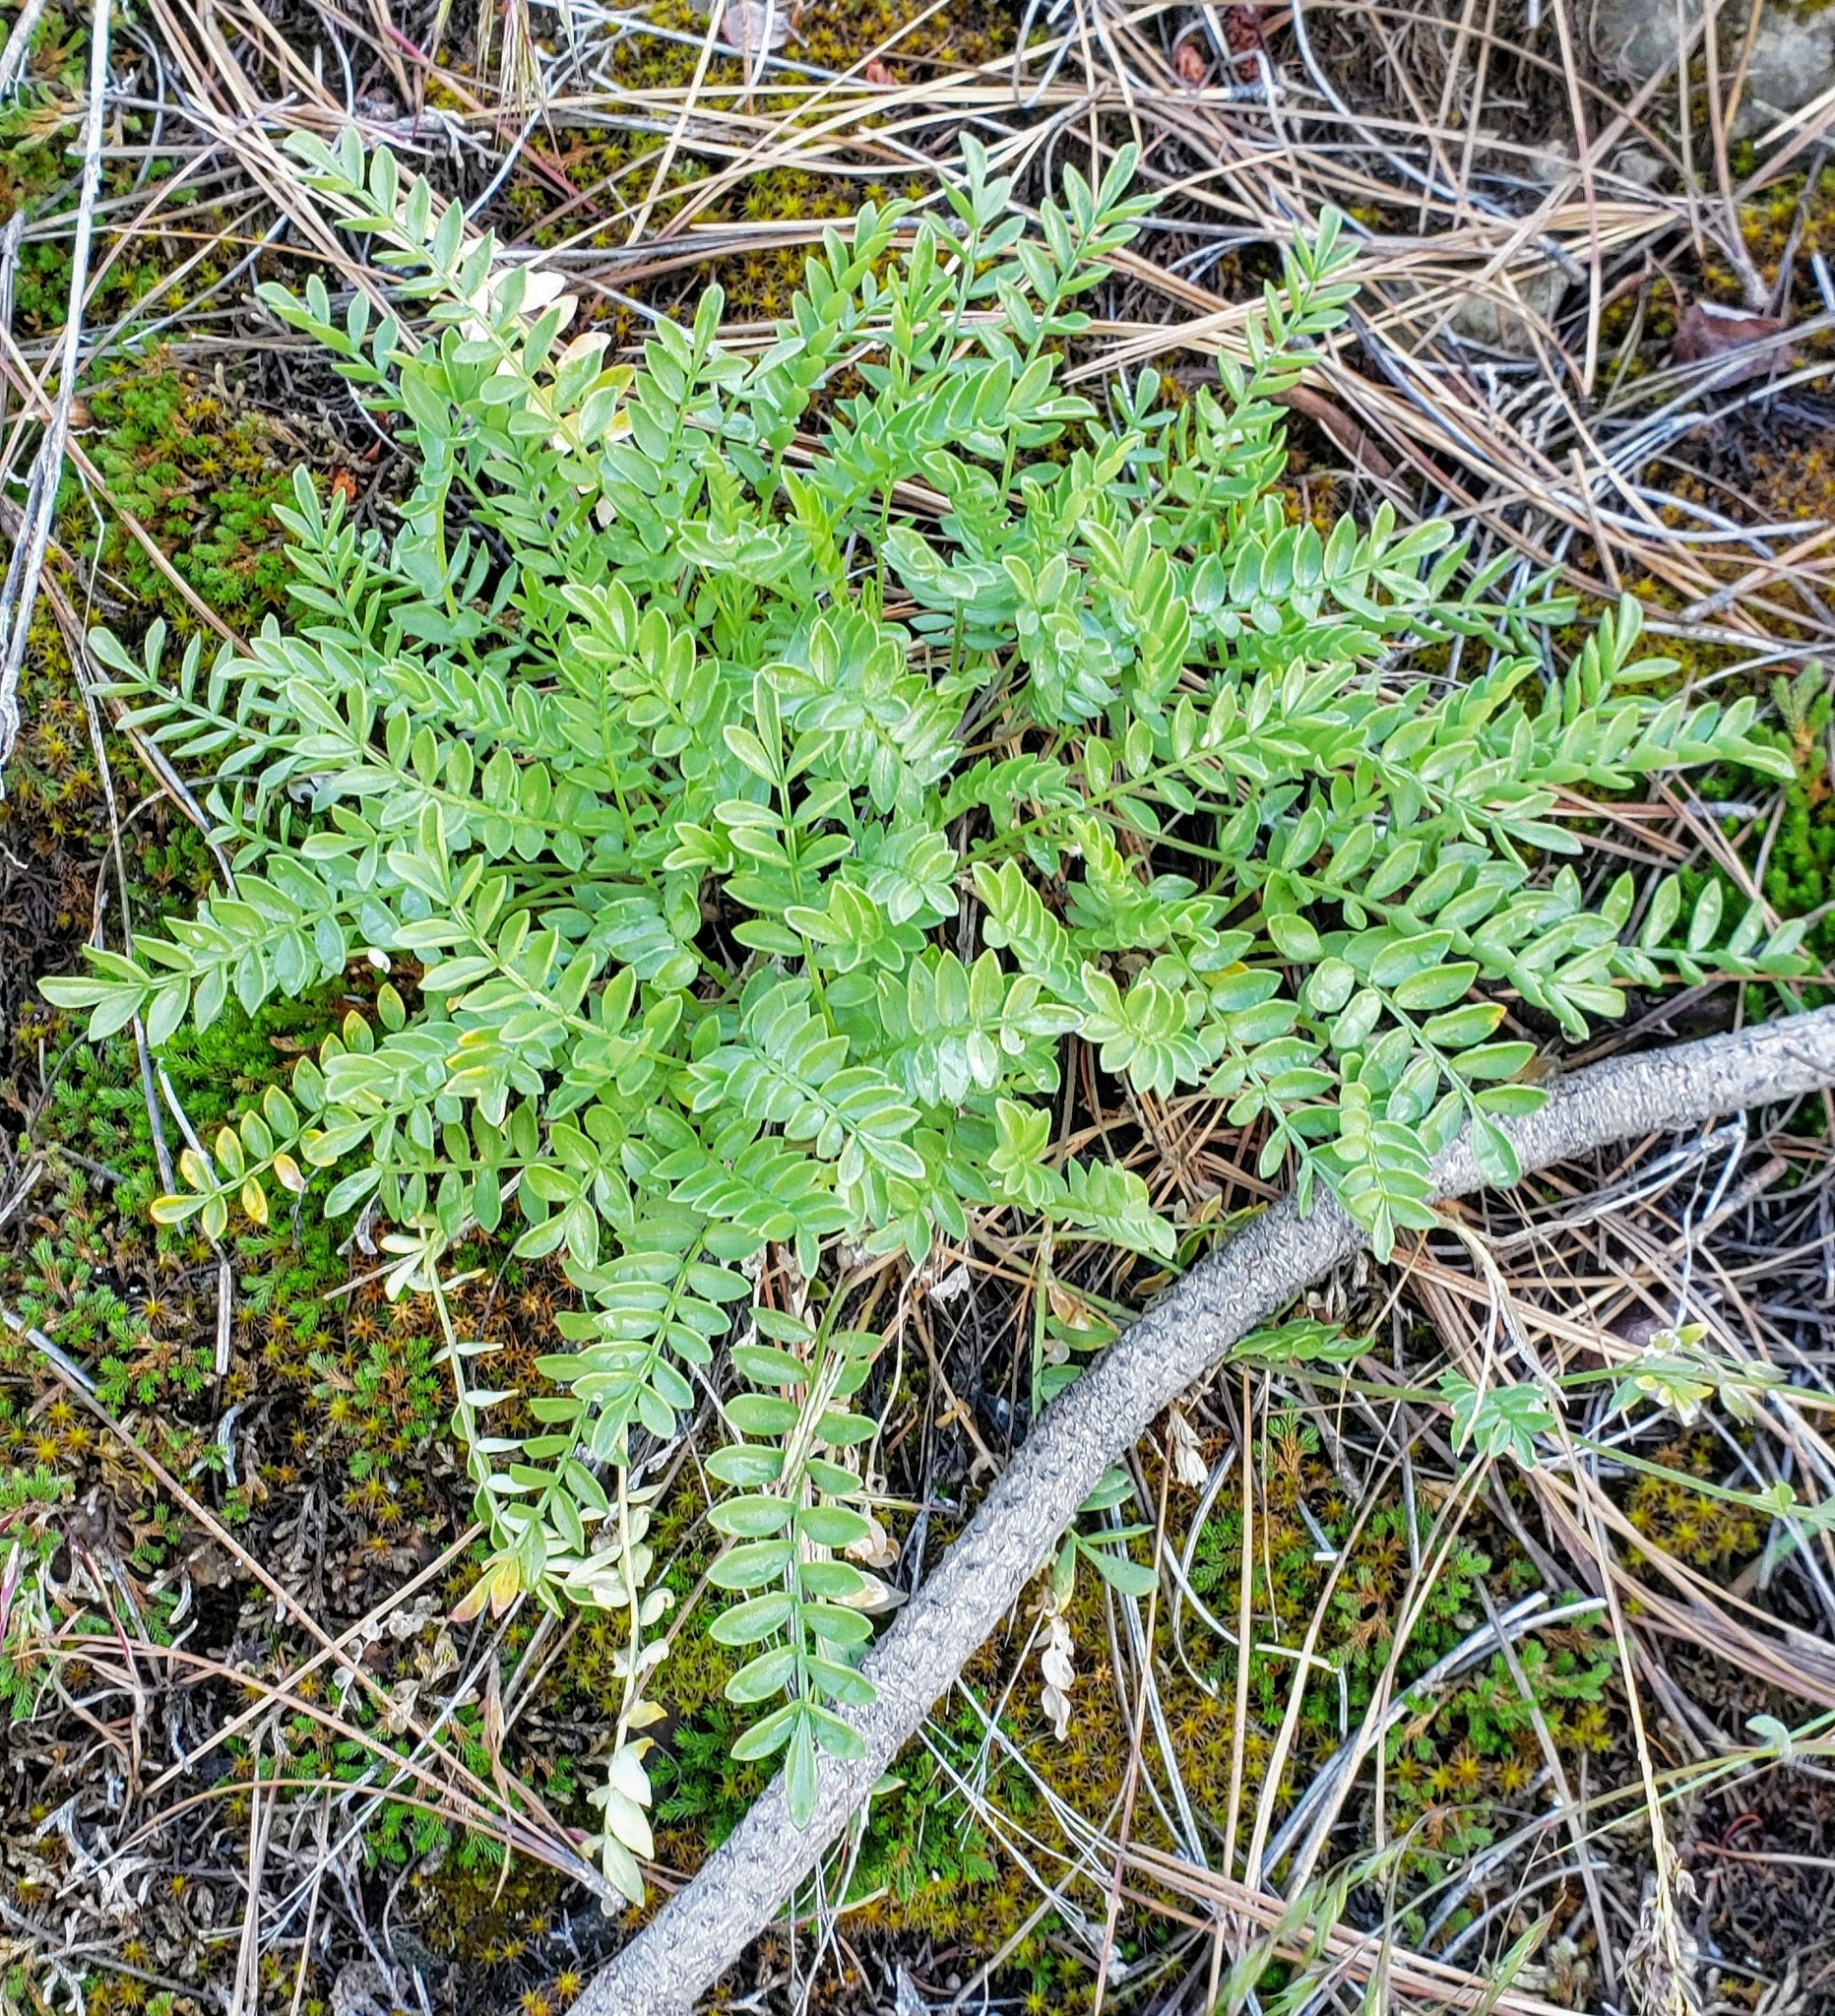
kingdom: Plantae
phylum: Tracheophyta
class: Magnoliopsida
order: Ericales
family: Polemoniaceae
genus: Polemonium
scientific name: Polemonium pulcherrimum
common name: Short jacob's-ladder
